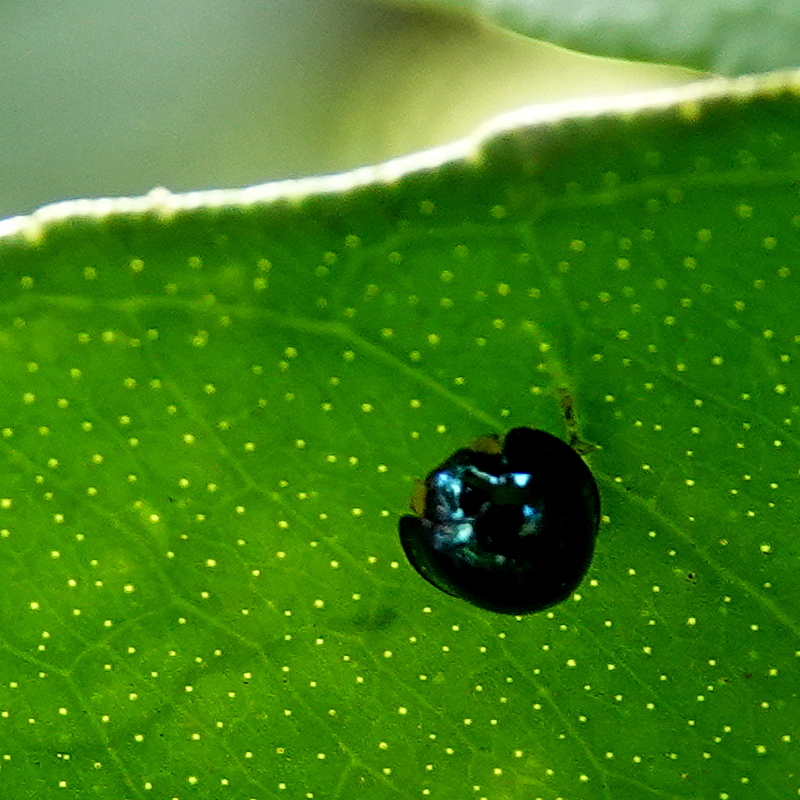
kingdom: Animalia
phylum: Arthropoda
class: Insecta
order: Coleoptera
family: Coccinellidae
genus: Halmus
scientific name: Halmus chalybeus
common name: Steel blue ladybird beetle
